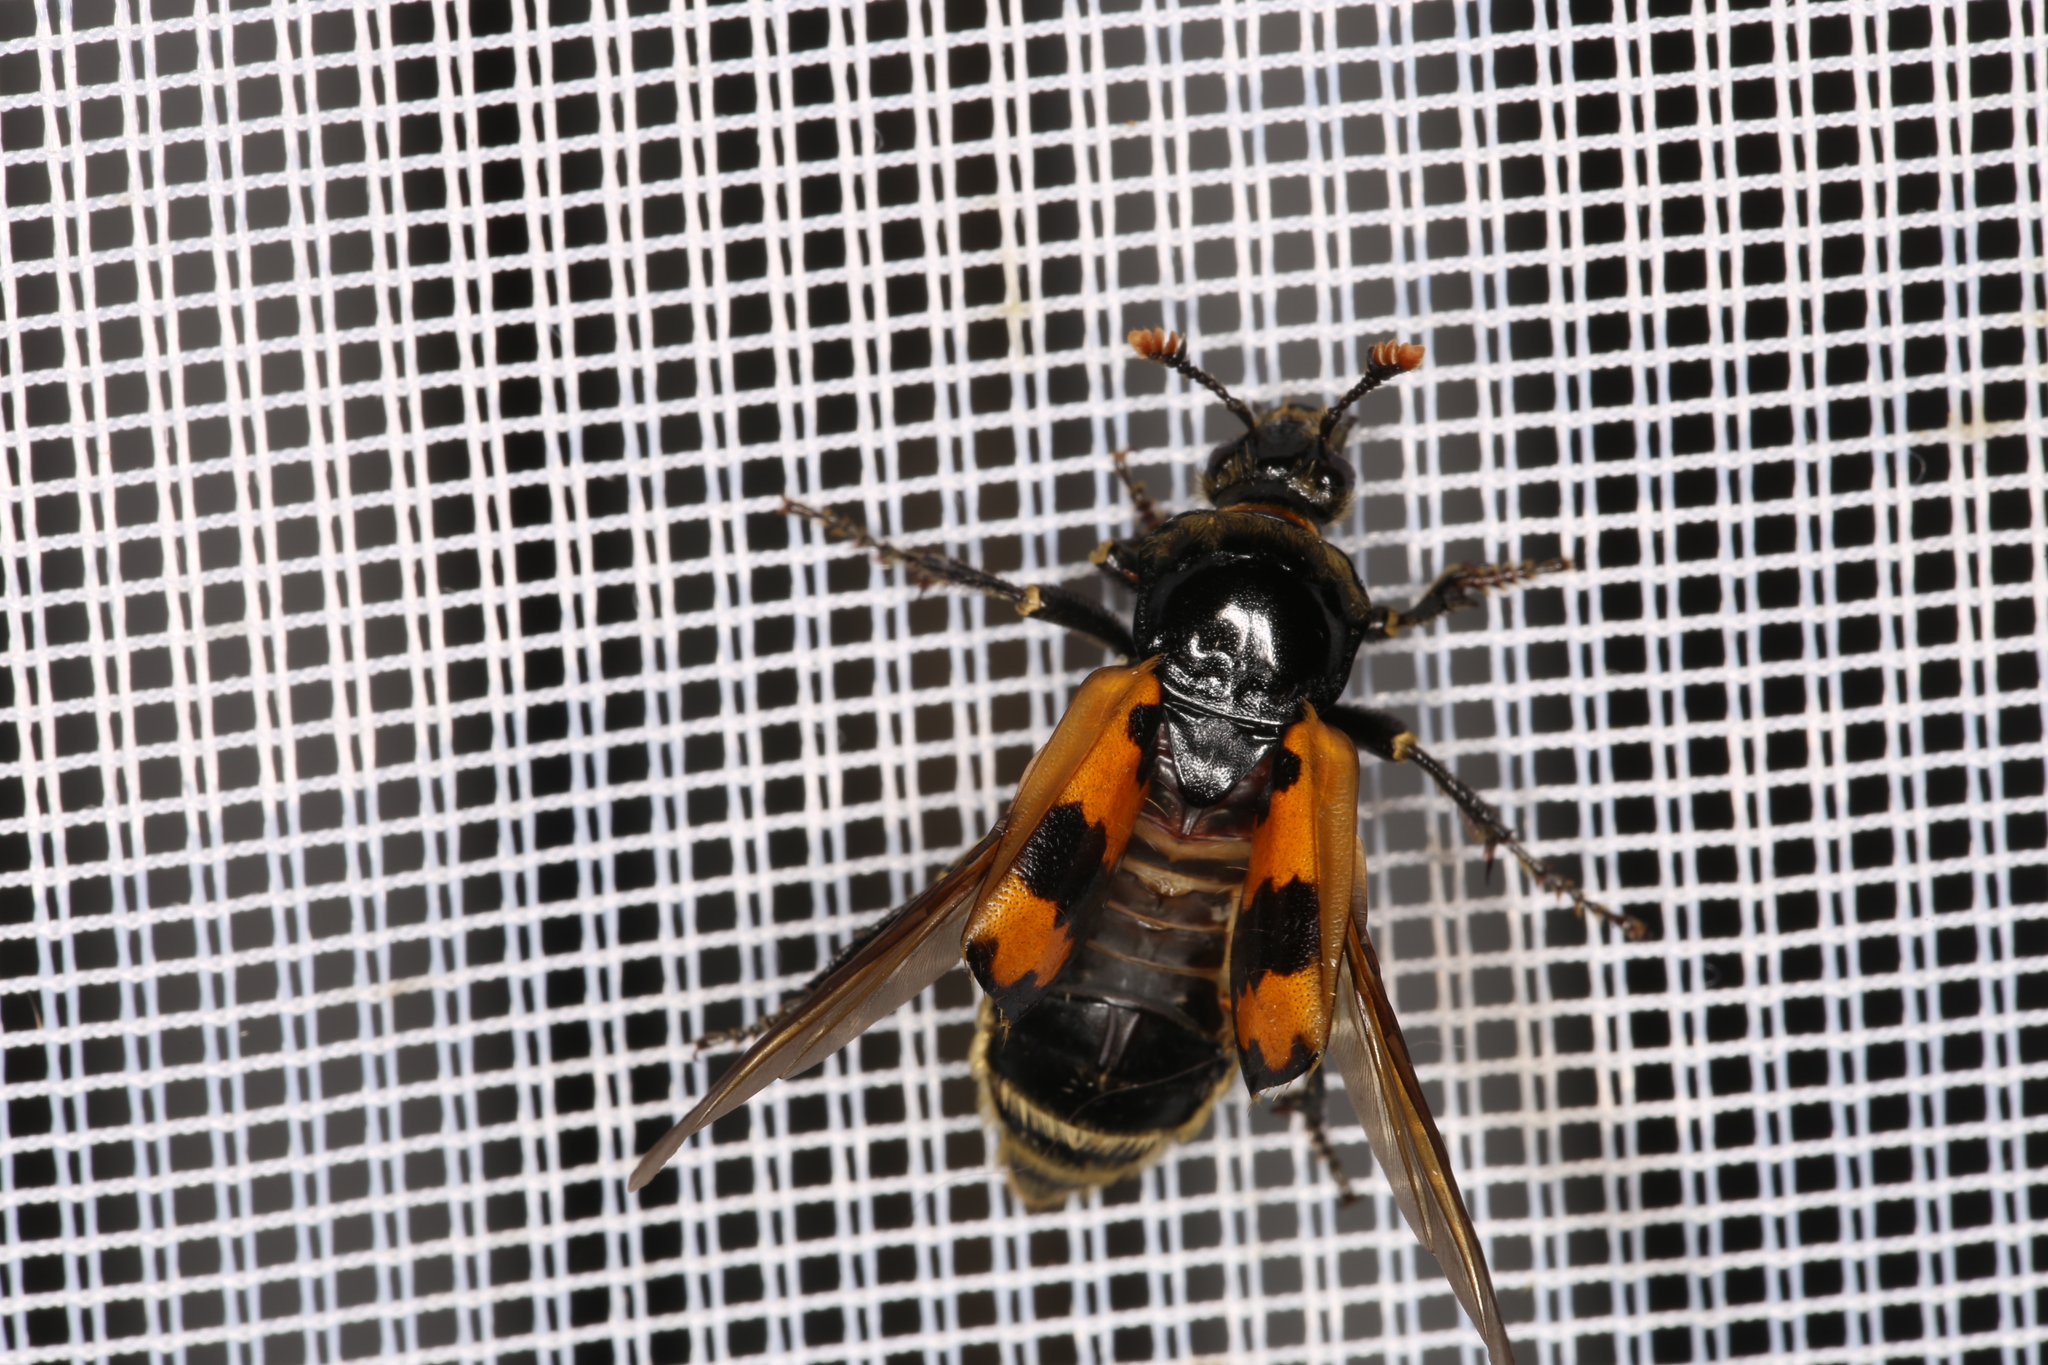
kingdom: Animalia
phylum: Arthropoda
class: Insecta
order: Coleoptera
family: Staphylinidae
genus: Nicrophorus
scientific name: Nicrophorus vespillo
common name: Common burying beetle
